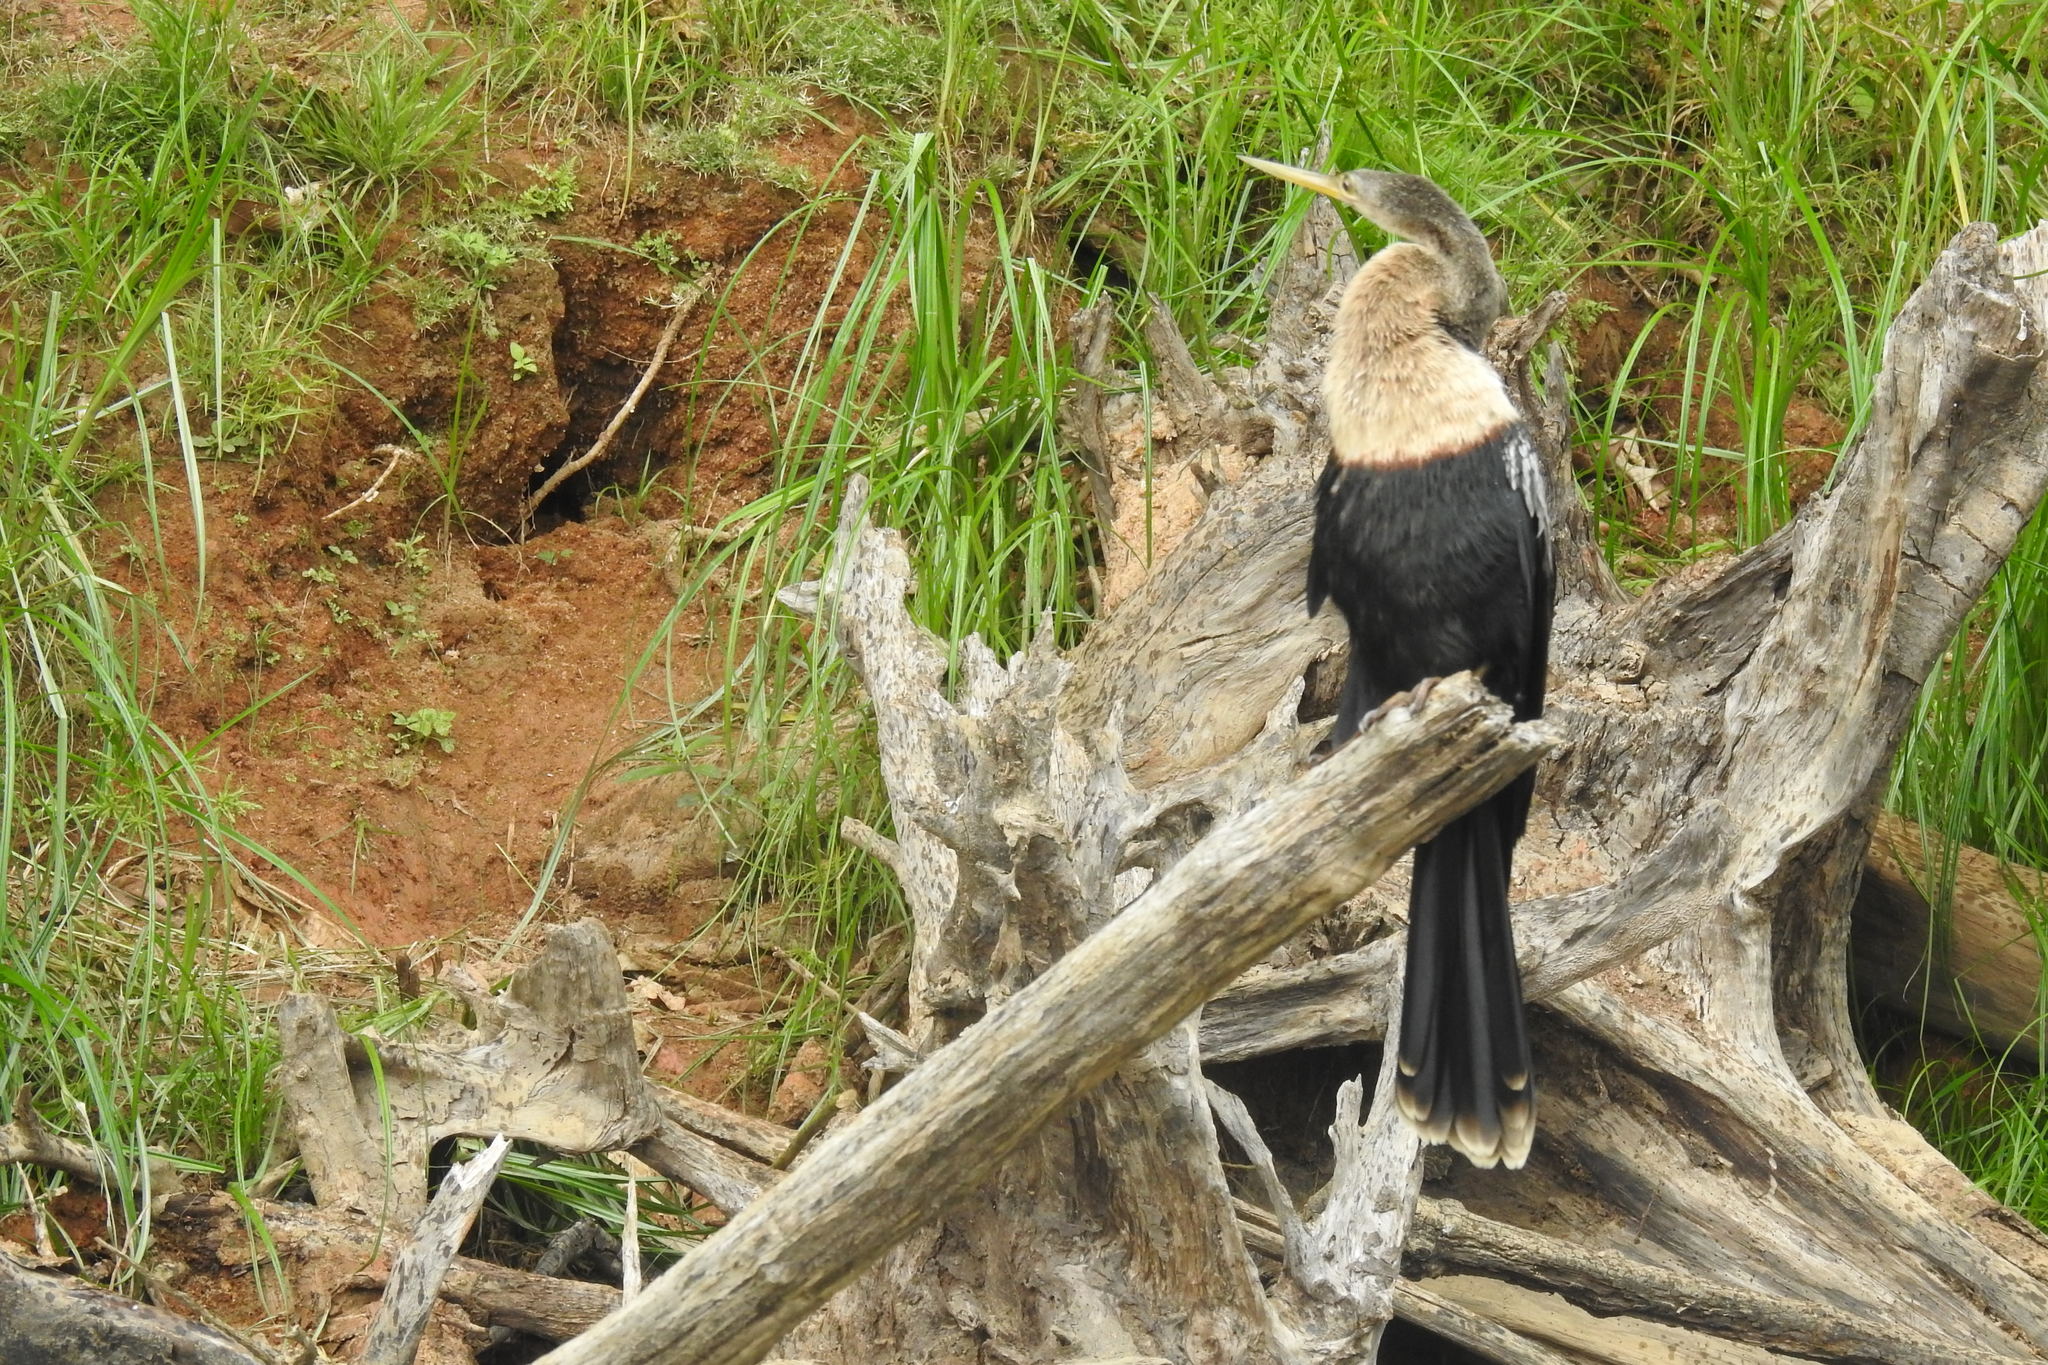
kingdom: Animalia
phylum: Chordata
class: Aves
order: Suliformes
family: Anhingidae
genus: Anhinga
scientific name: Anhinga anhinga
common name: Anhinga
